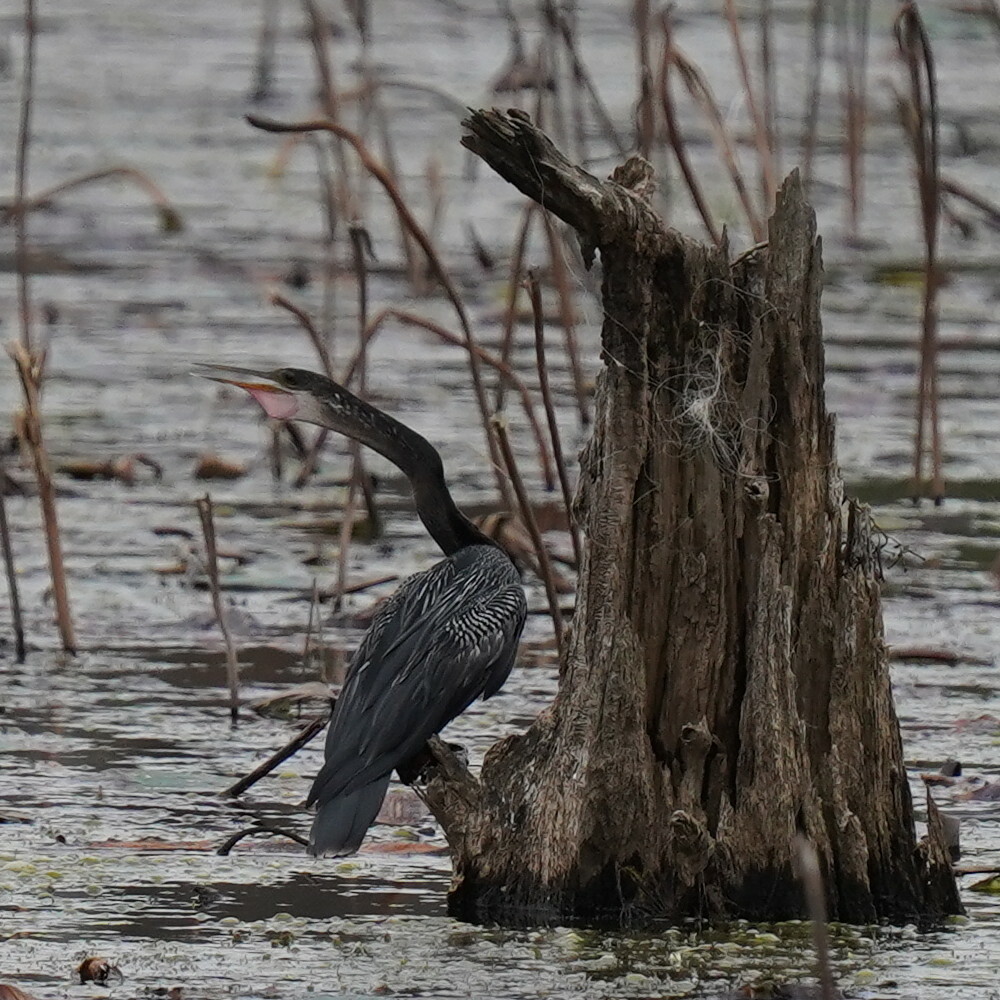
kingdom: Animalia
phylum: Chordata
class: Aves
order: Suliformes
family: Anhingidae
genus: Anhinga
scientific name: Anhinga anhinga
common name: Anhinga
